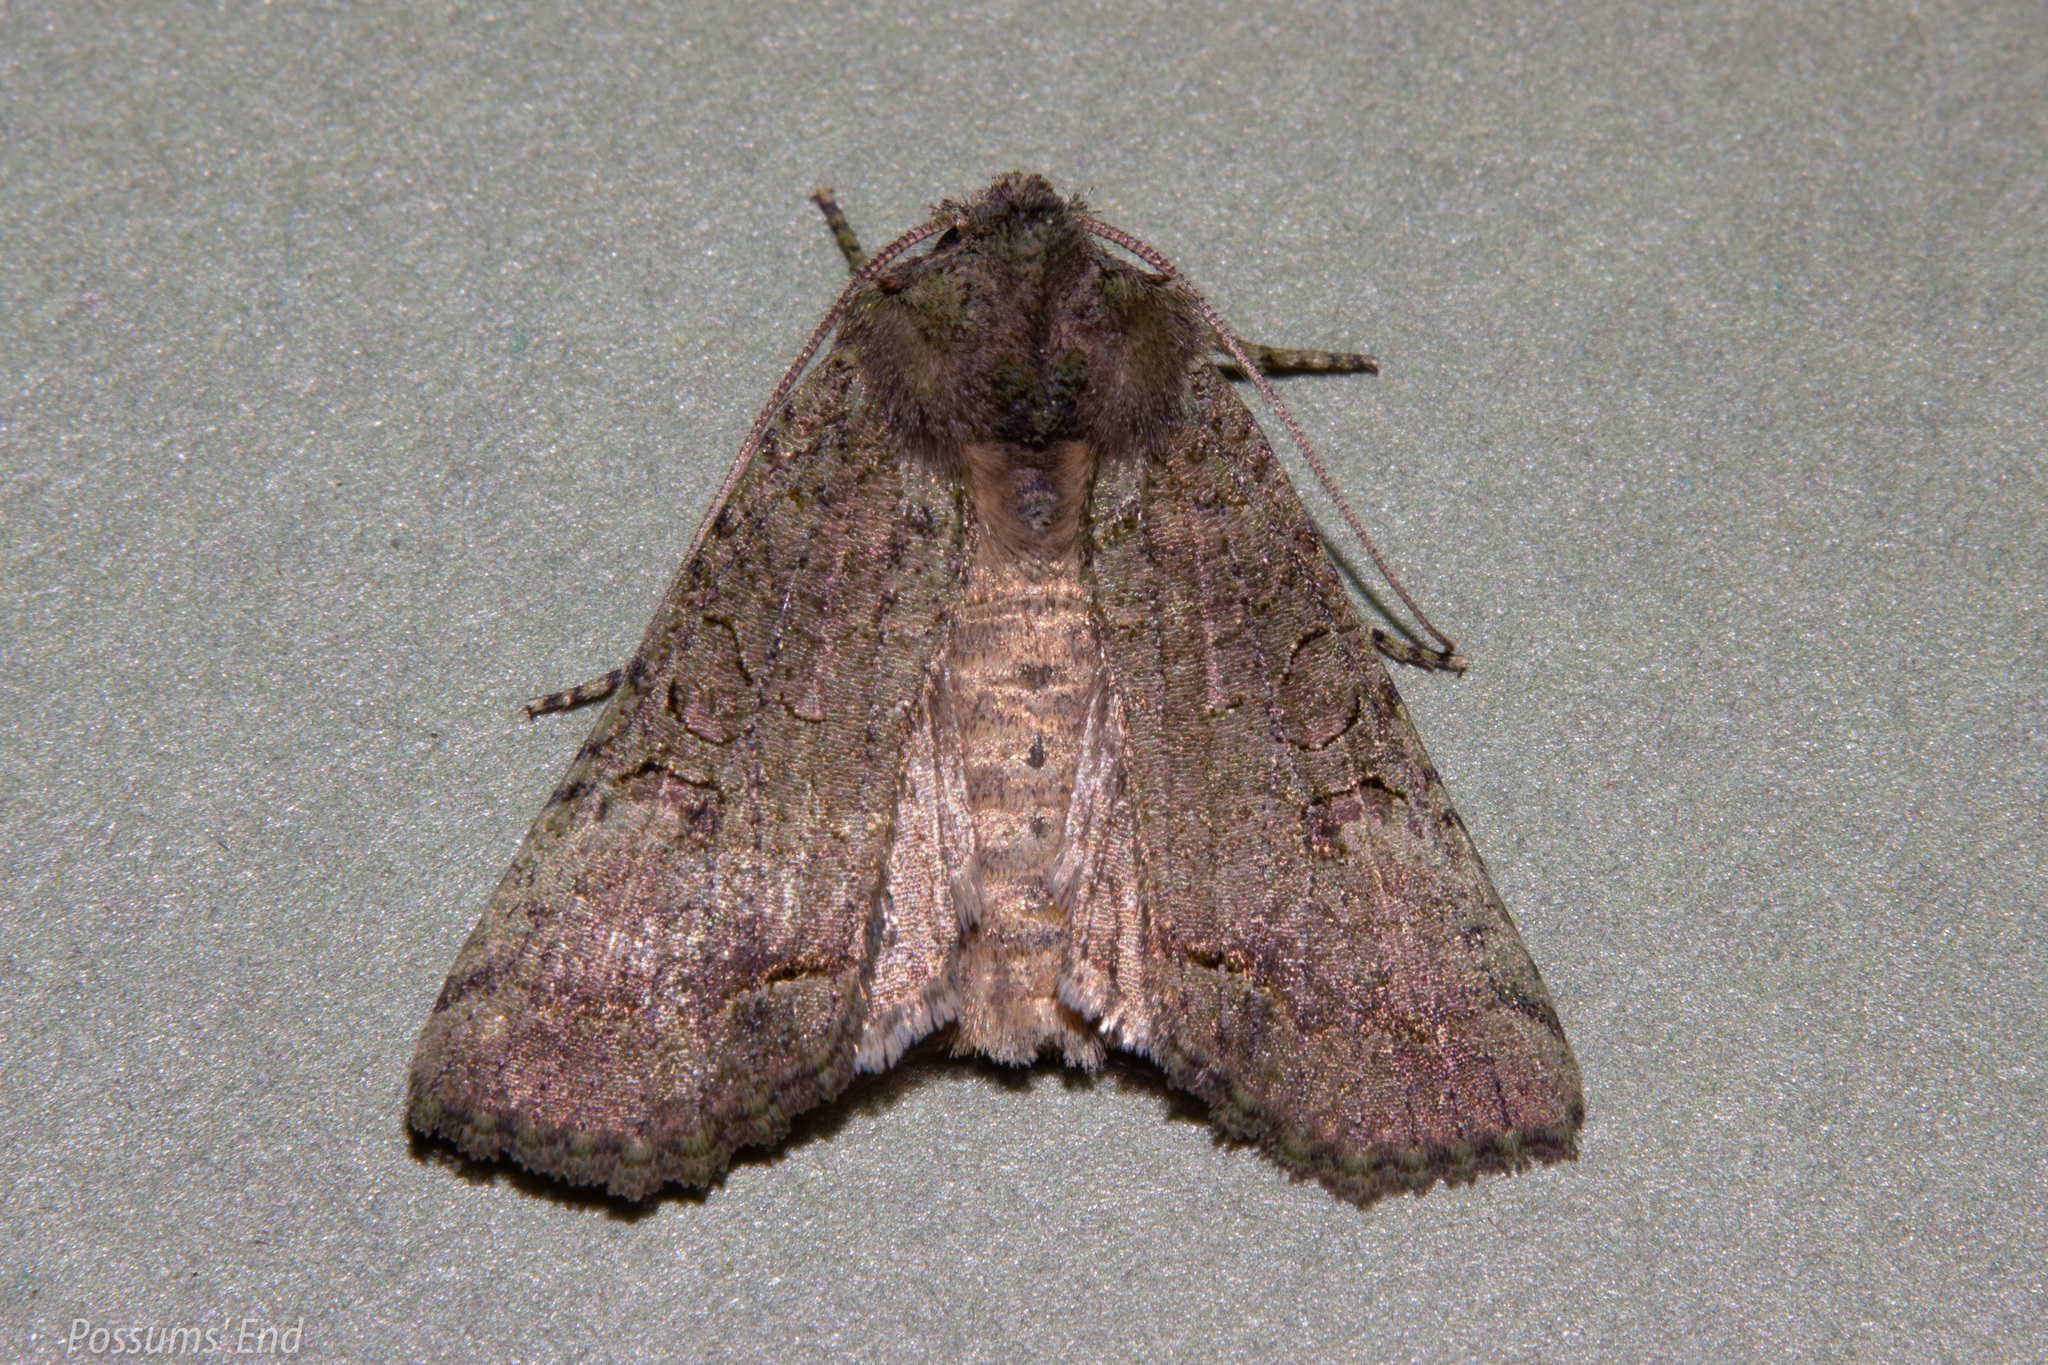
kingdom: Animalia
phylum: Arthropoda
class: Insecta
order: Lepidoptera
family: Noctuidae
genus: Meterana
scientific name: Meterana levis
